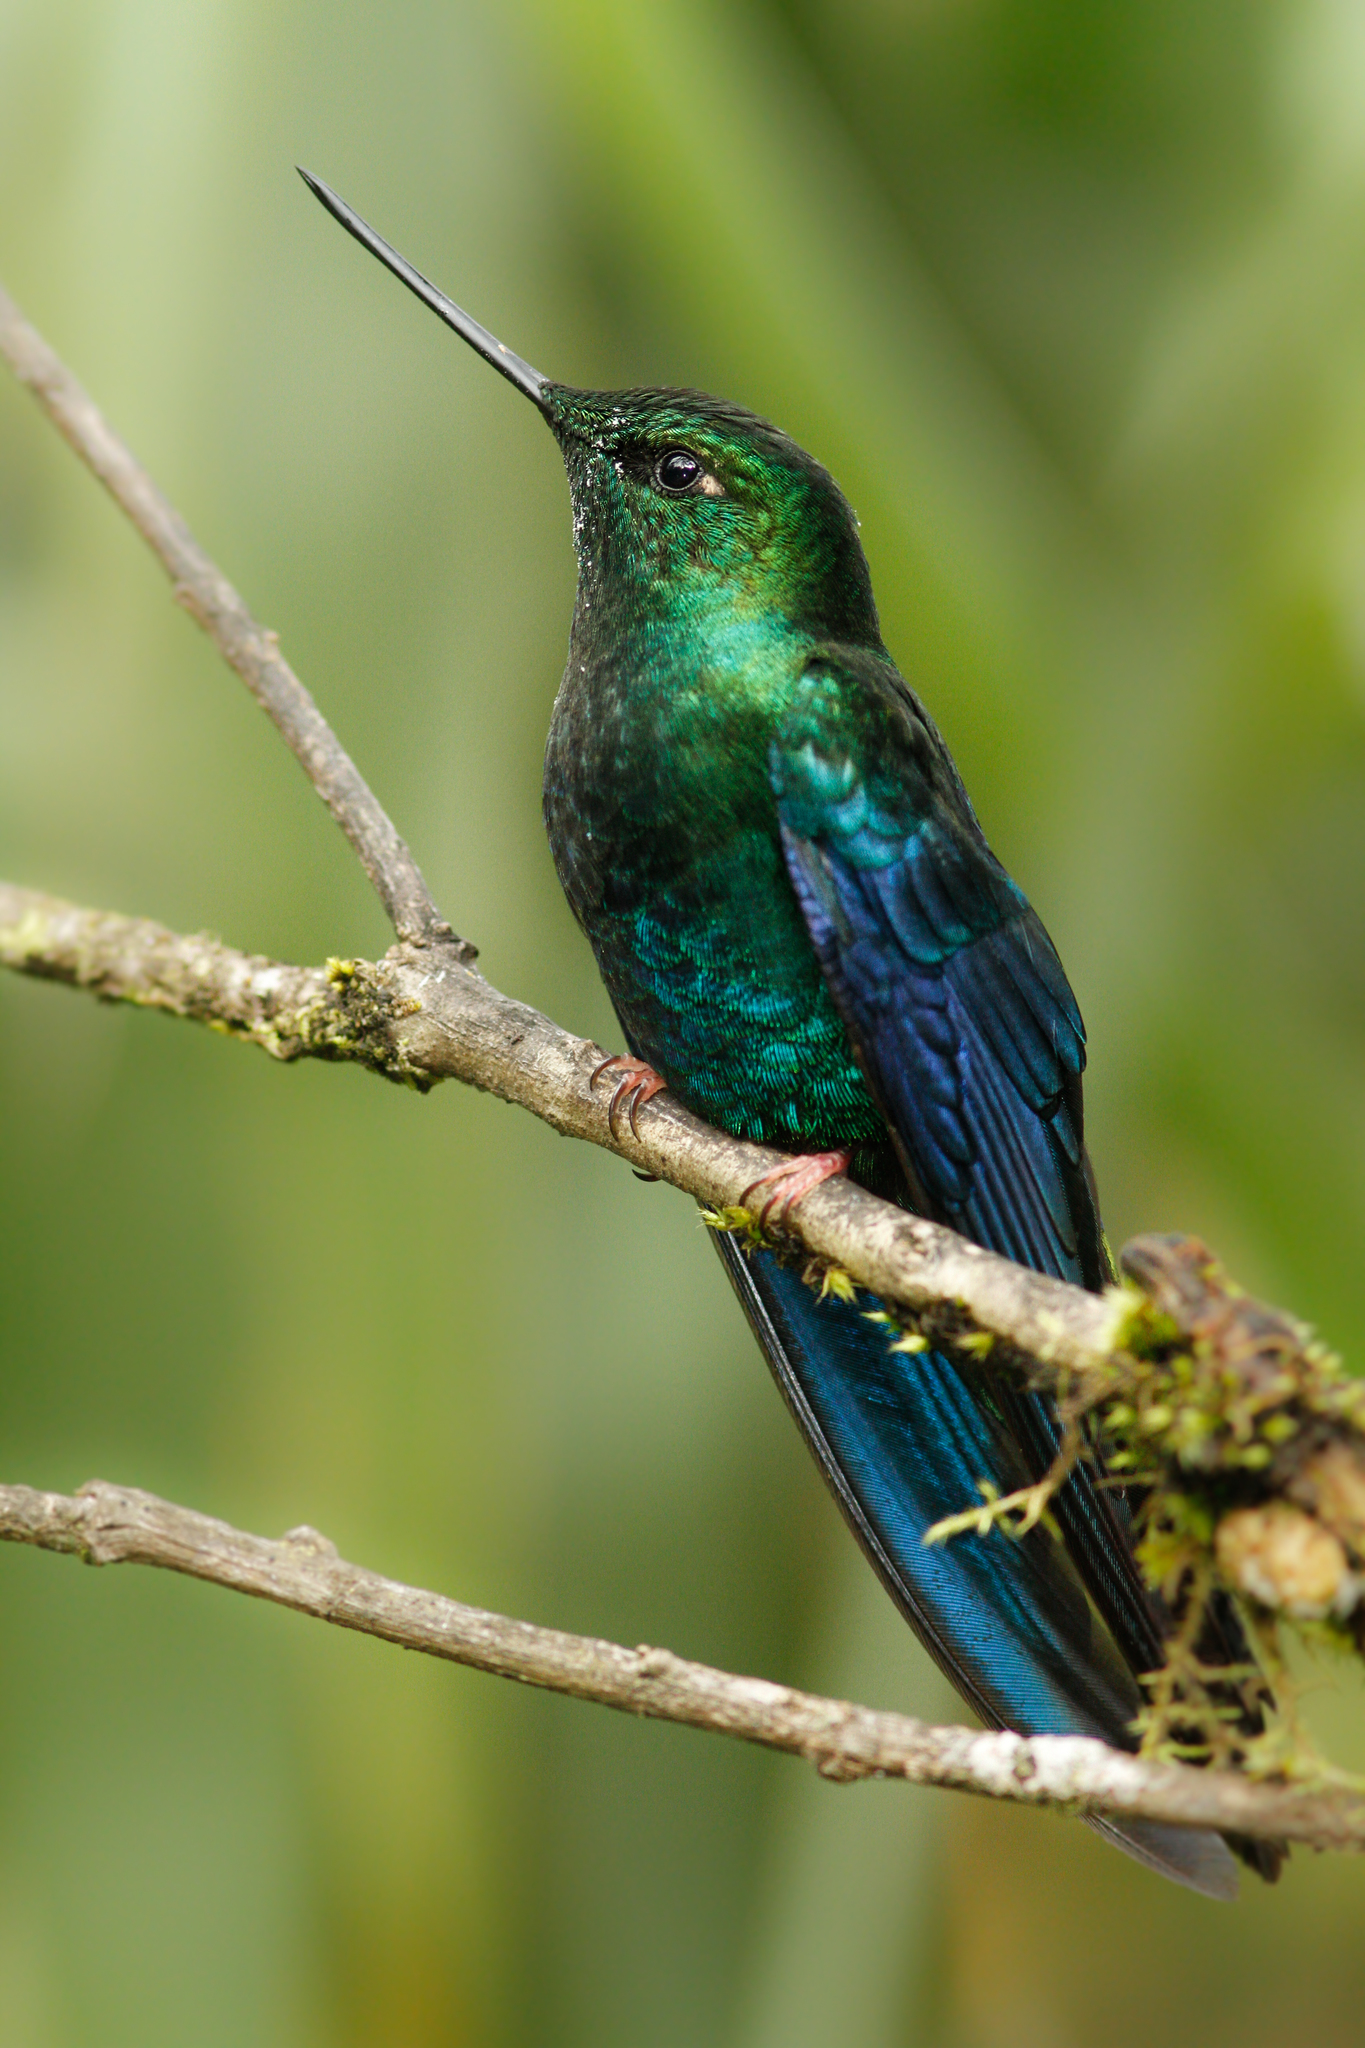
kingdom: Animalia
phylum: Chordata
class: Aves
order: Apodiformes
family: Trochilidae
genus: Pterophanes
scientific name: Pterophanes cyanopterus
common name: Great sapphirewing
